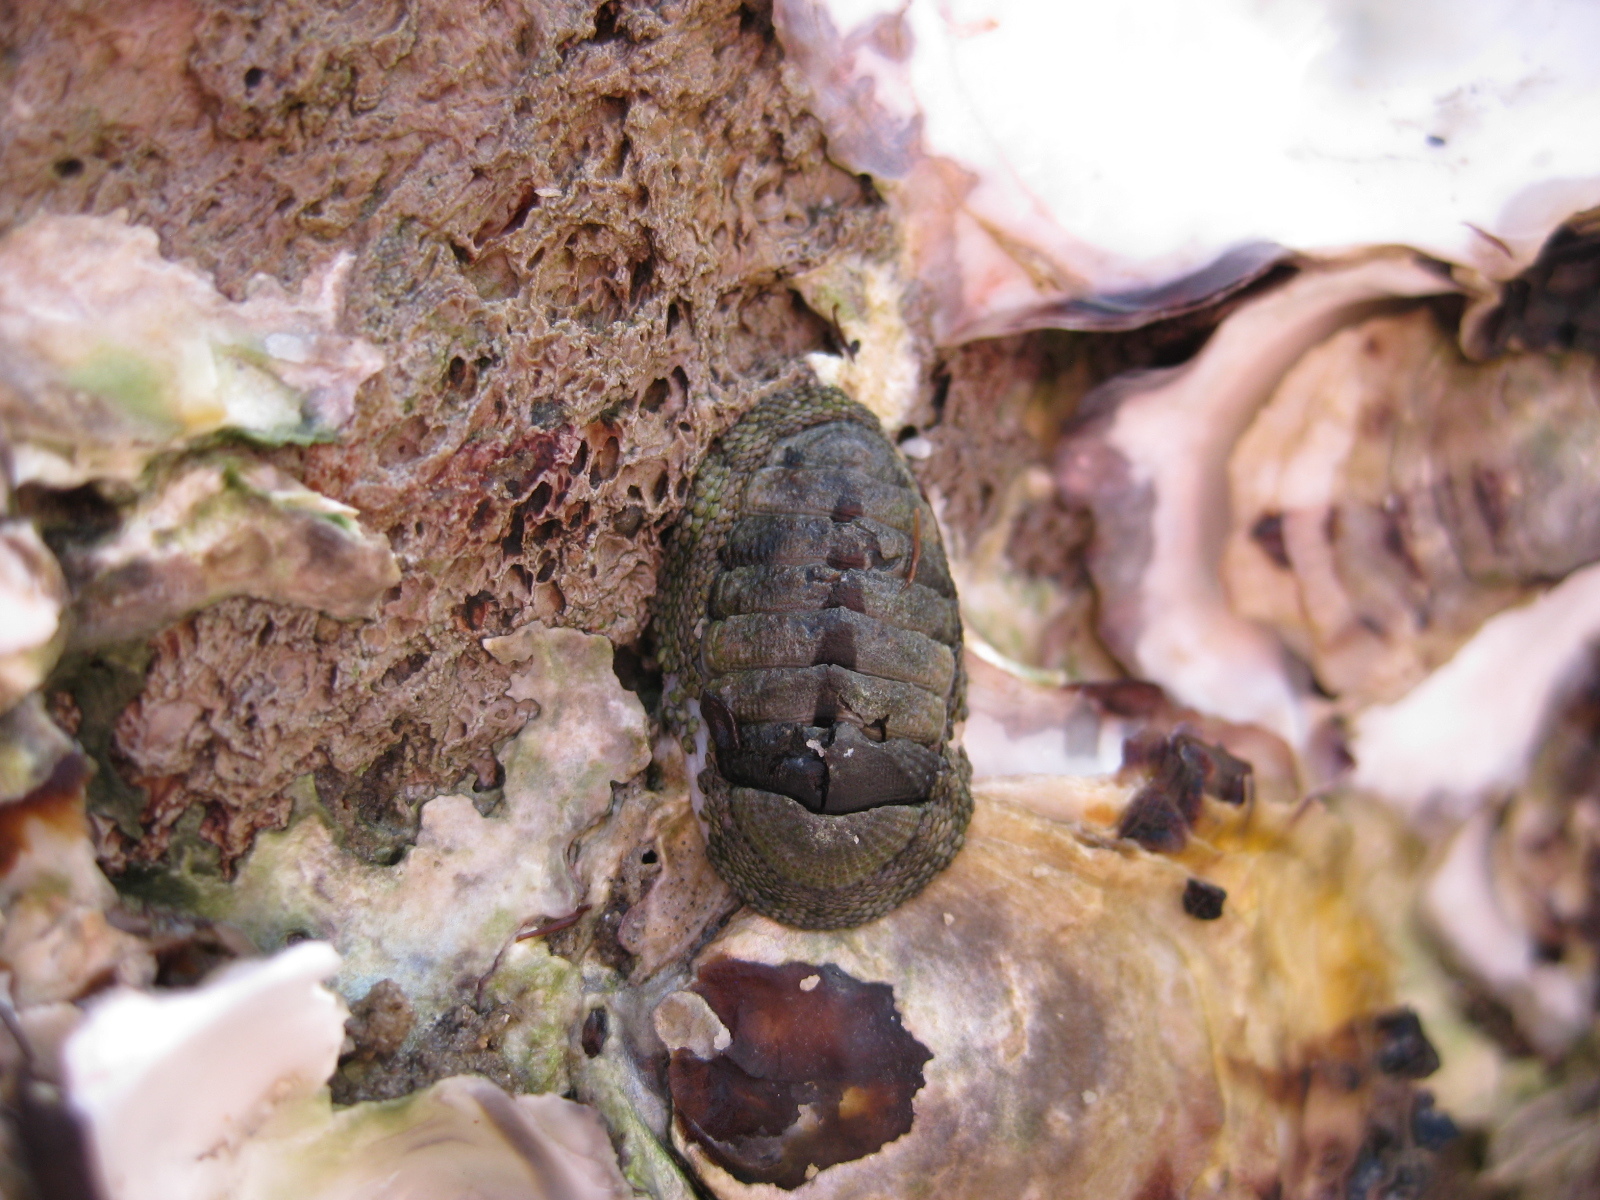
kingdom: Animalia
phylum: Mollusca
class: Polyplacophora
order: Chitonida
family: Chitonidae
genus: Sypharochiton
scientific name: Sypharochiton pelliserpentis
